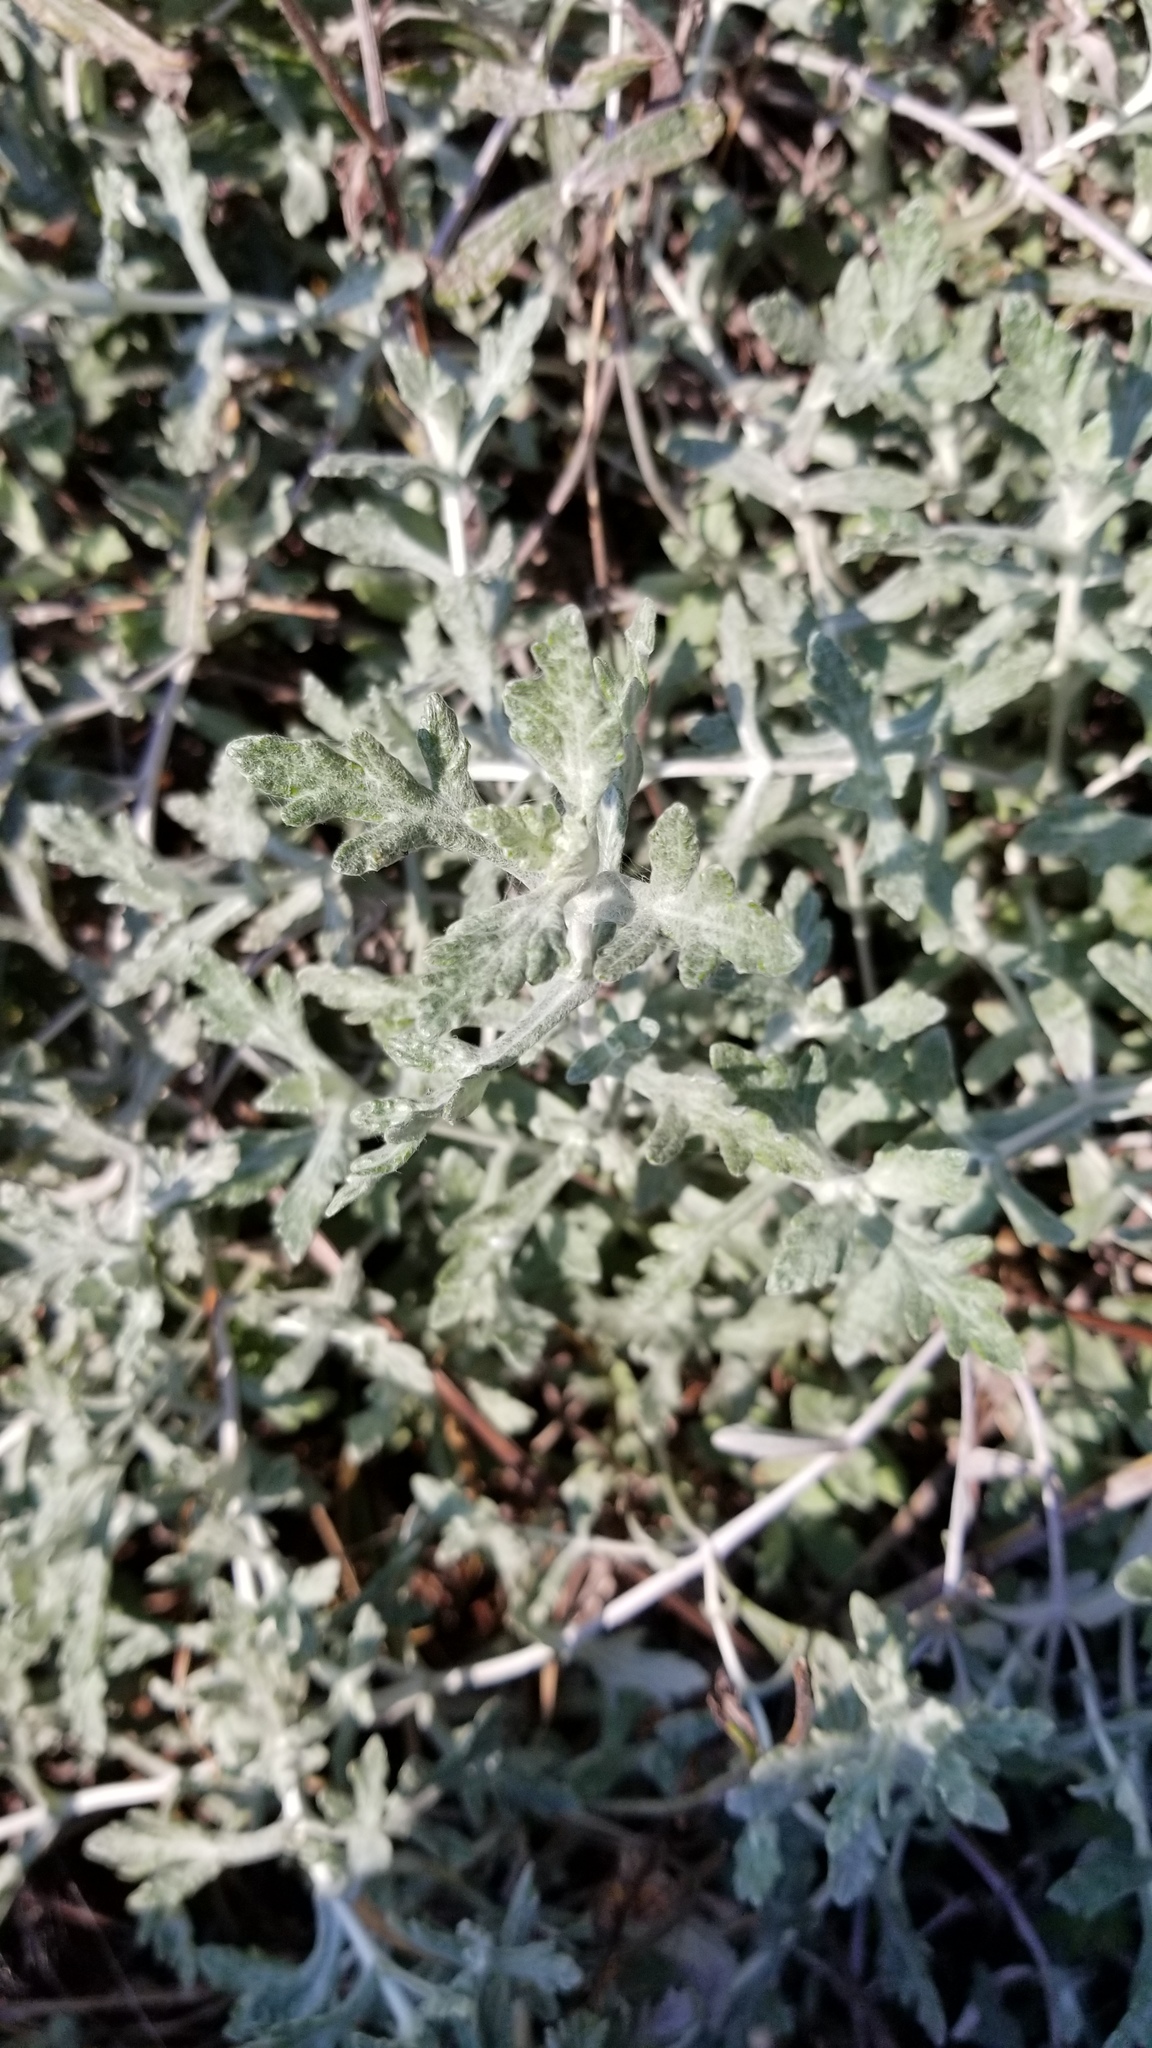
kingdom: Plantae
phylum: Tracheophyta
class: Magnoliopsida
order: Asterales
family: Asteraceae
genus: Eriophyllum
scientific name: Eriophyllum lanatum
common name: Common woolly-sunflower
